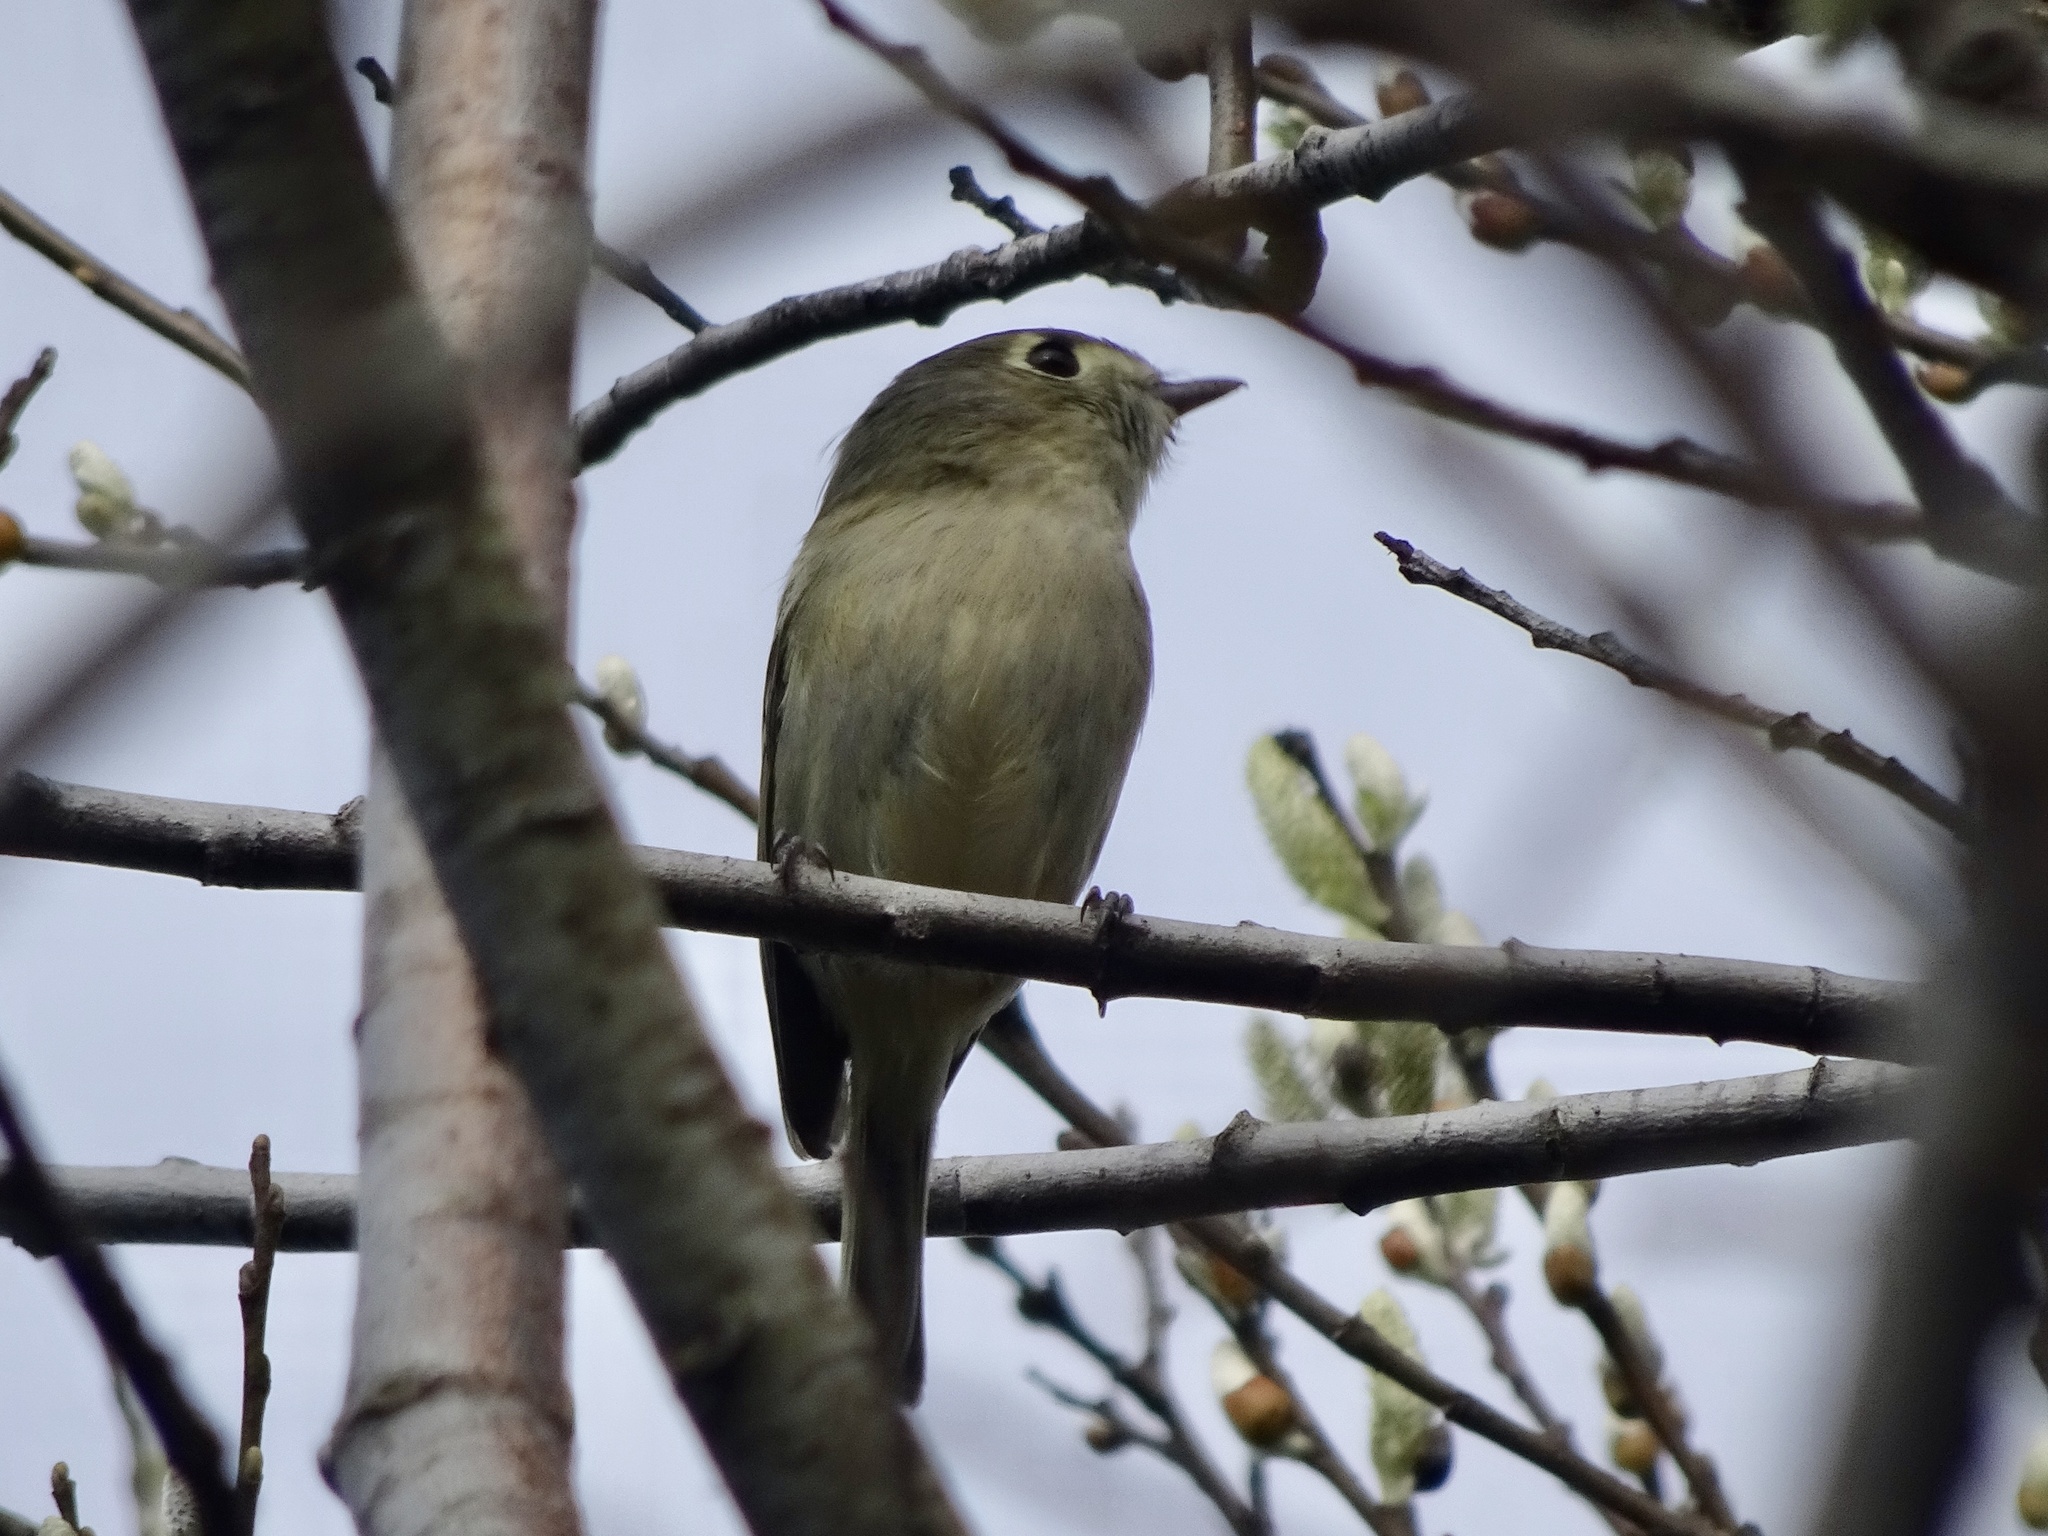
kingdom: Animalia
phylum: Chordata
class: Aves
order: Passeriformes
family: Vireonidae
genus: Vireo
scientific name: Vireo huttoni
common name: Hutton's vireo
